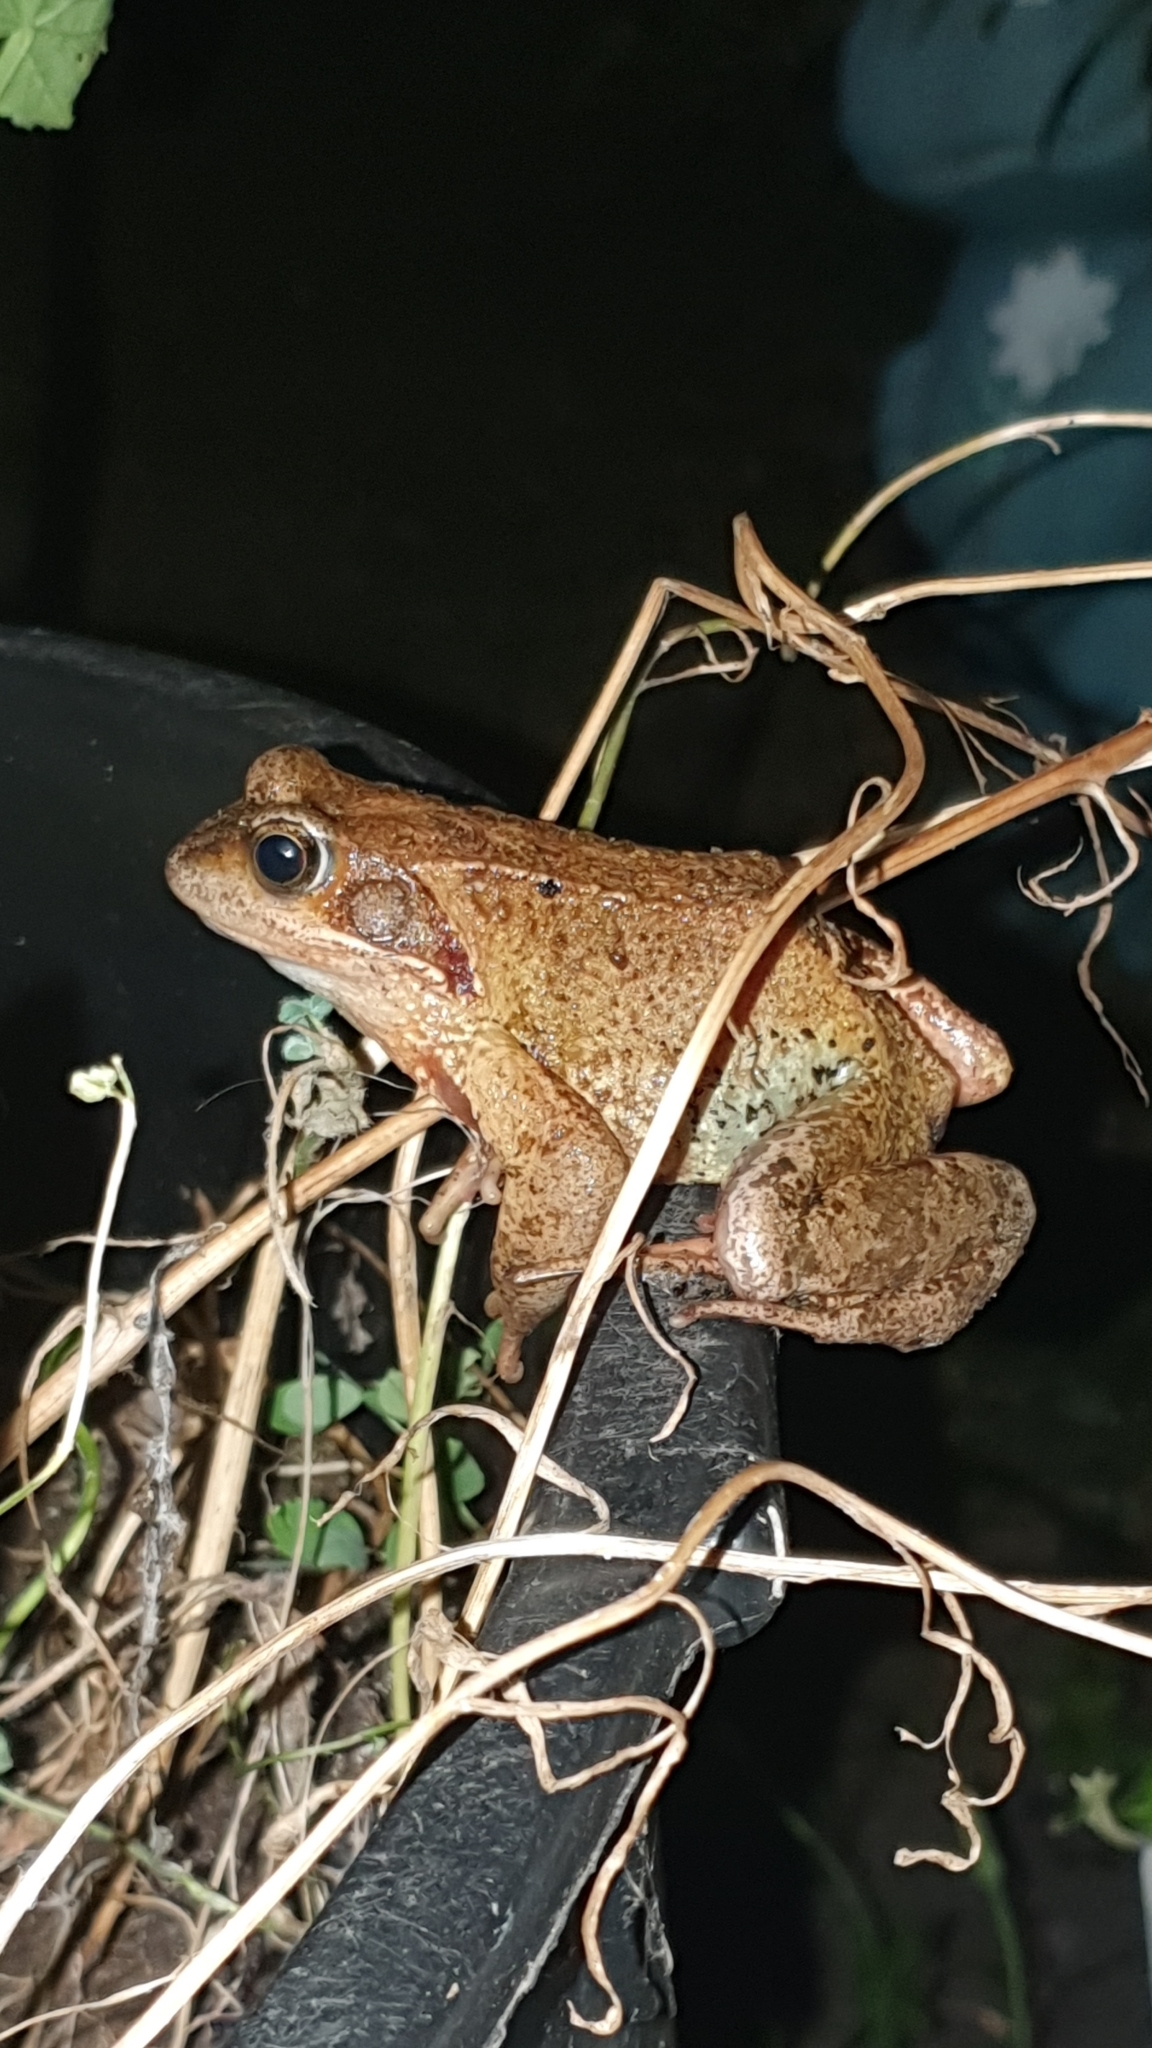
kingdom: Animalia
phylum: Chordata
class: Amphibia
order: Anura
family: Ranidae
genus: Rana
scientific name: Rana temporaria
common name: Common frog
